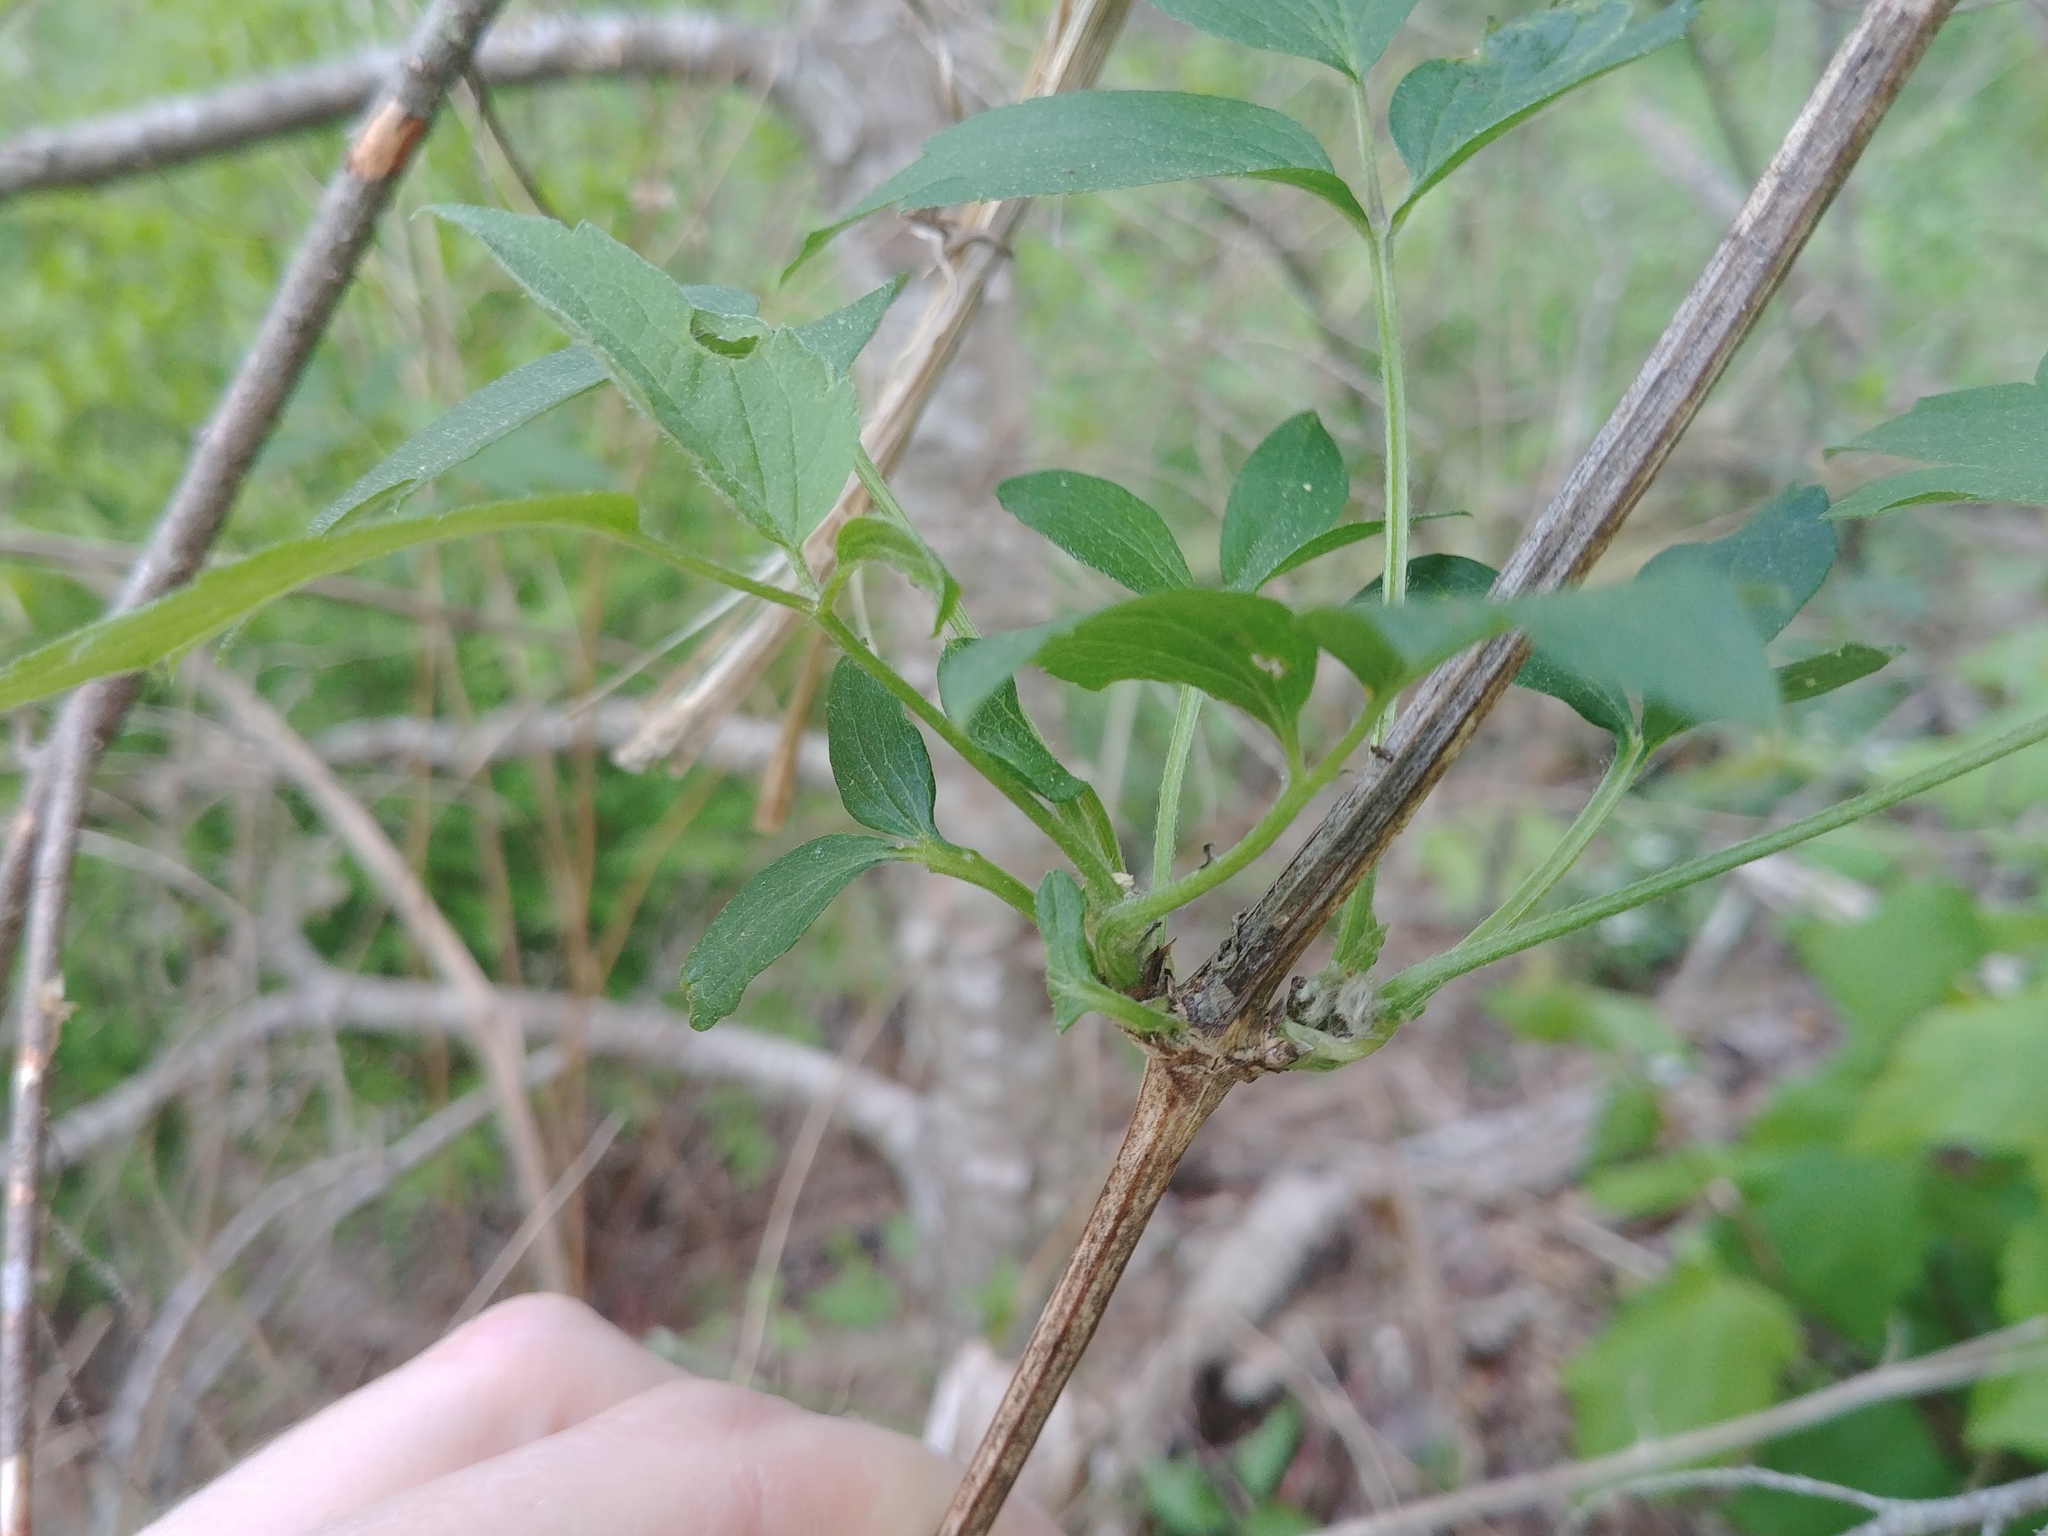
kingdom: Plantae
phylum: Tracheophyta
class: Magnoliopsida
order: Ranunculales
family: Ranunculaceae
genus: Clematis
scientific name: Clematis virginiana
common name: Virgin's-bower
